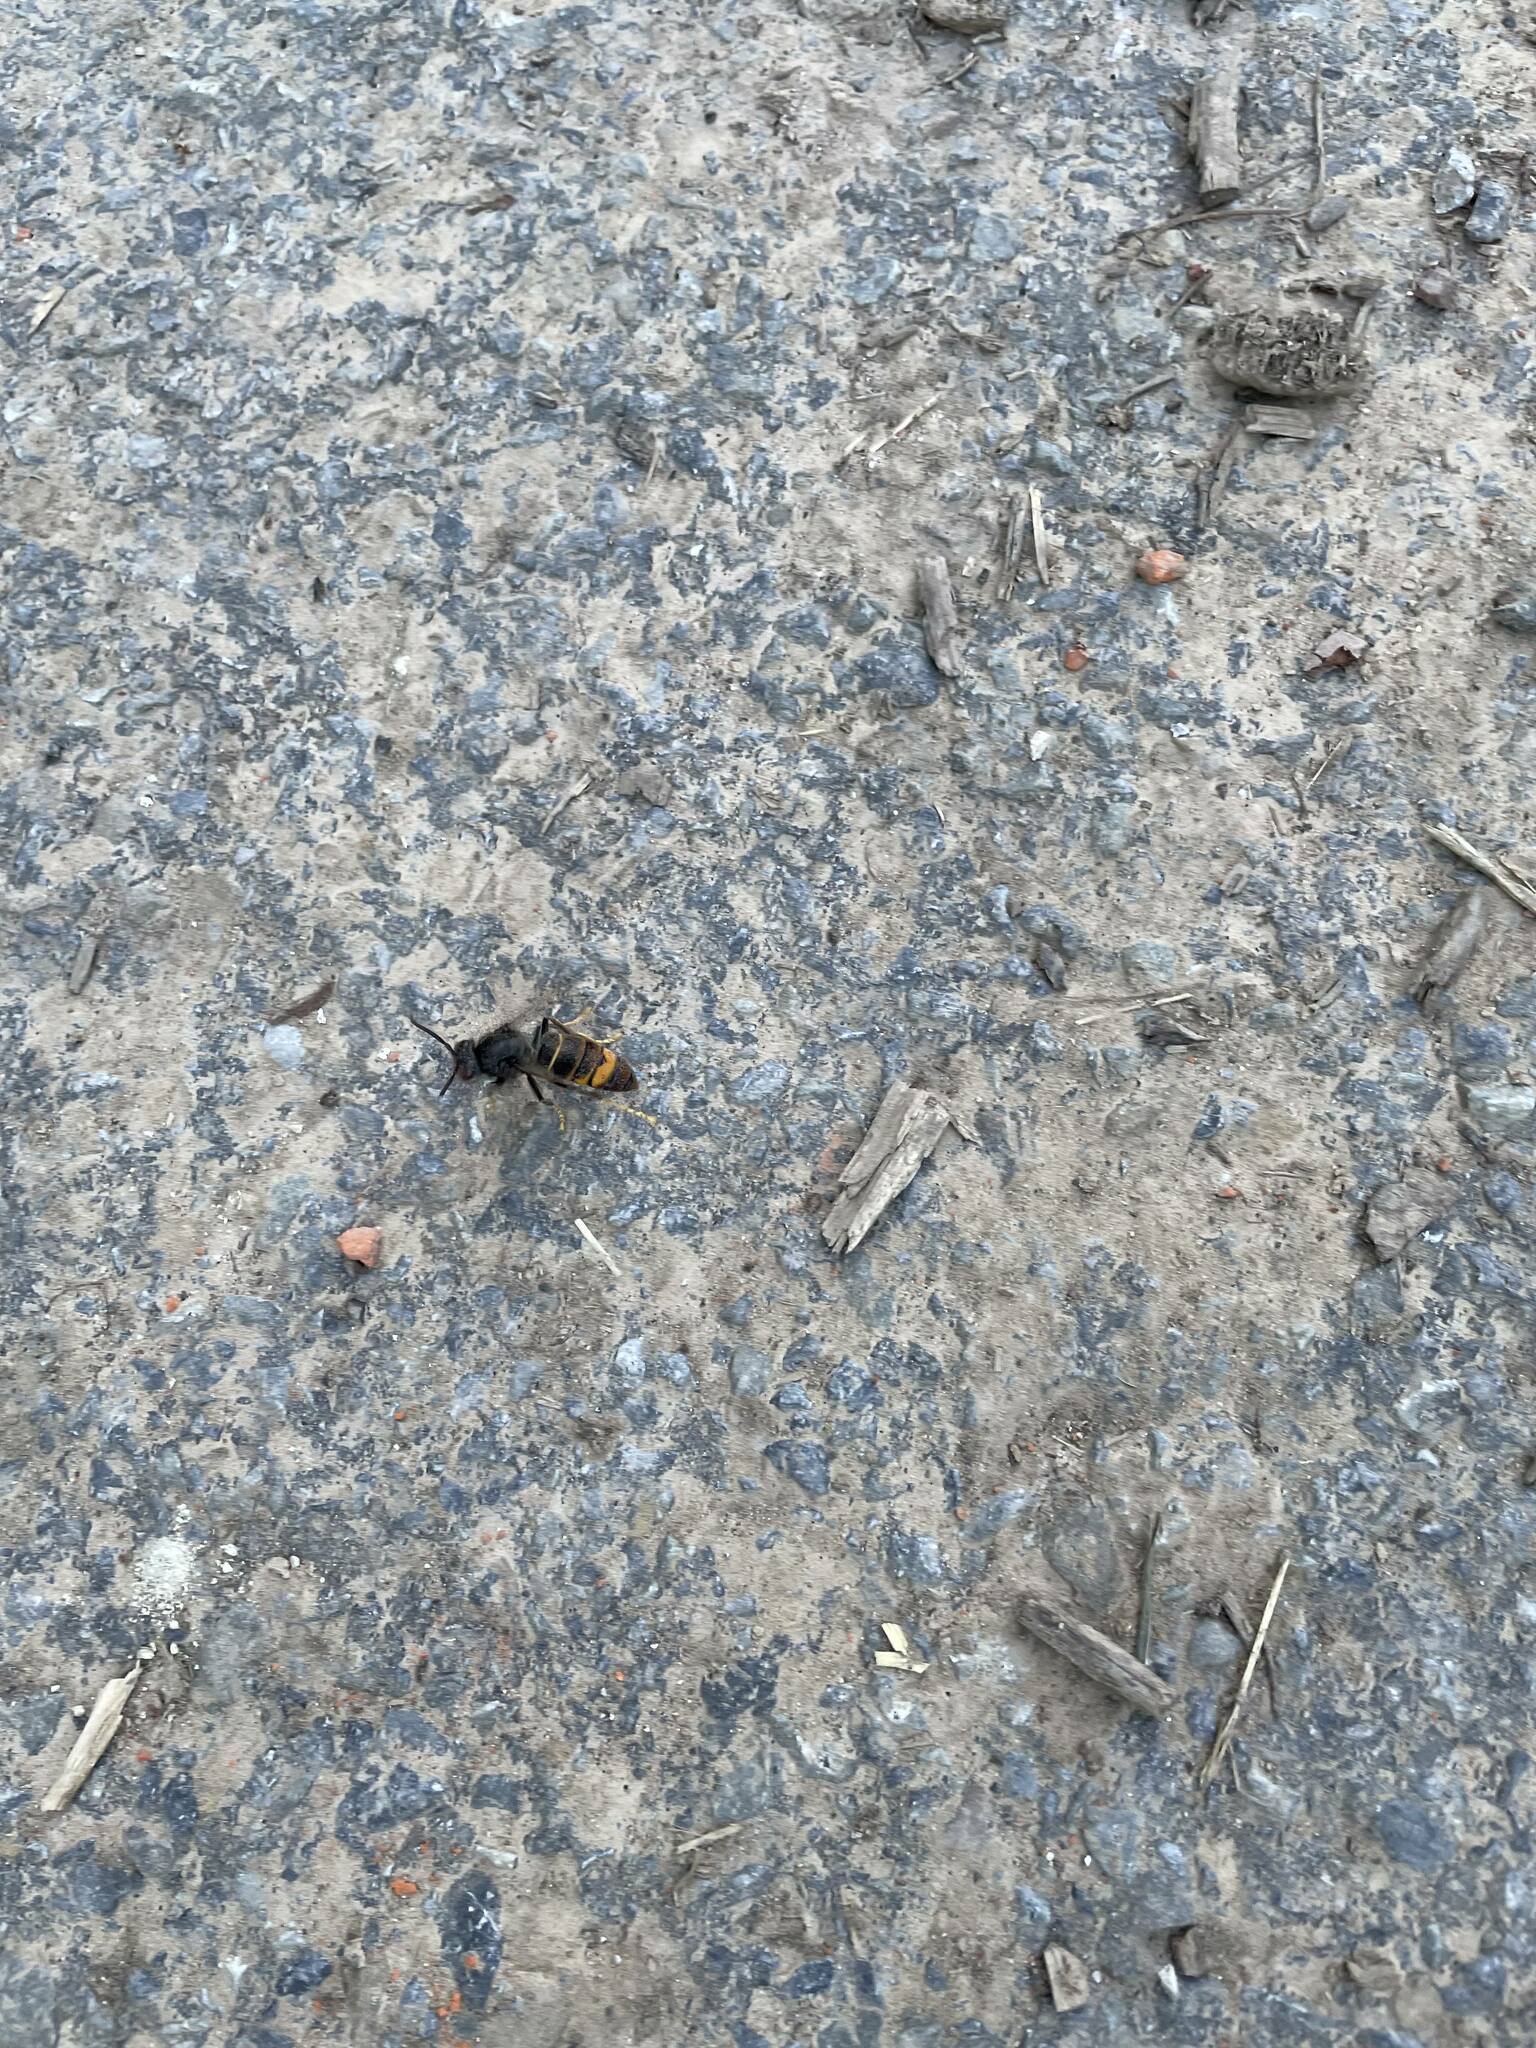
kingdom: Animalia
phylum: Arthropoda
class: Insecta
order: Hymenoptera
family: Vespidae
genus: Vespa
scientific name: Vespa velutina
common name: Asian hornet
